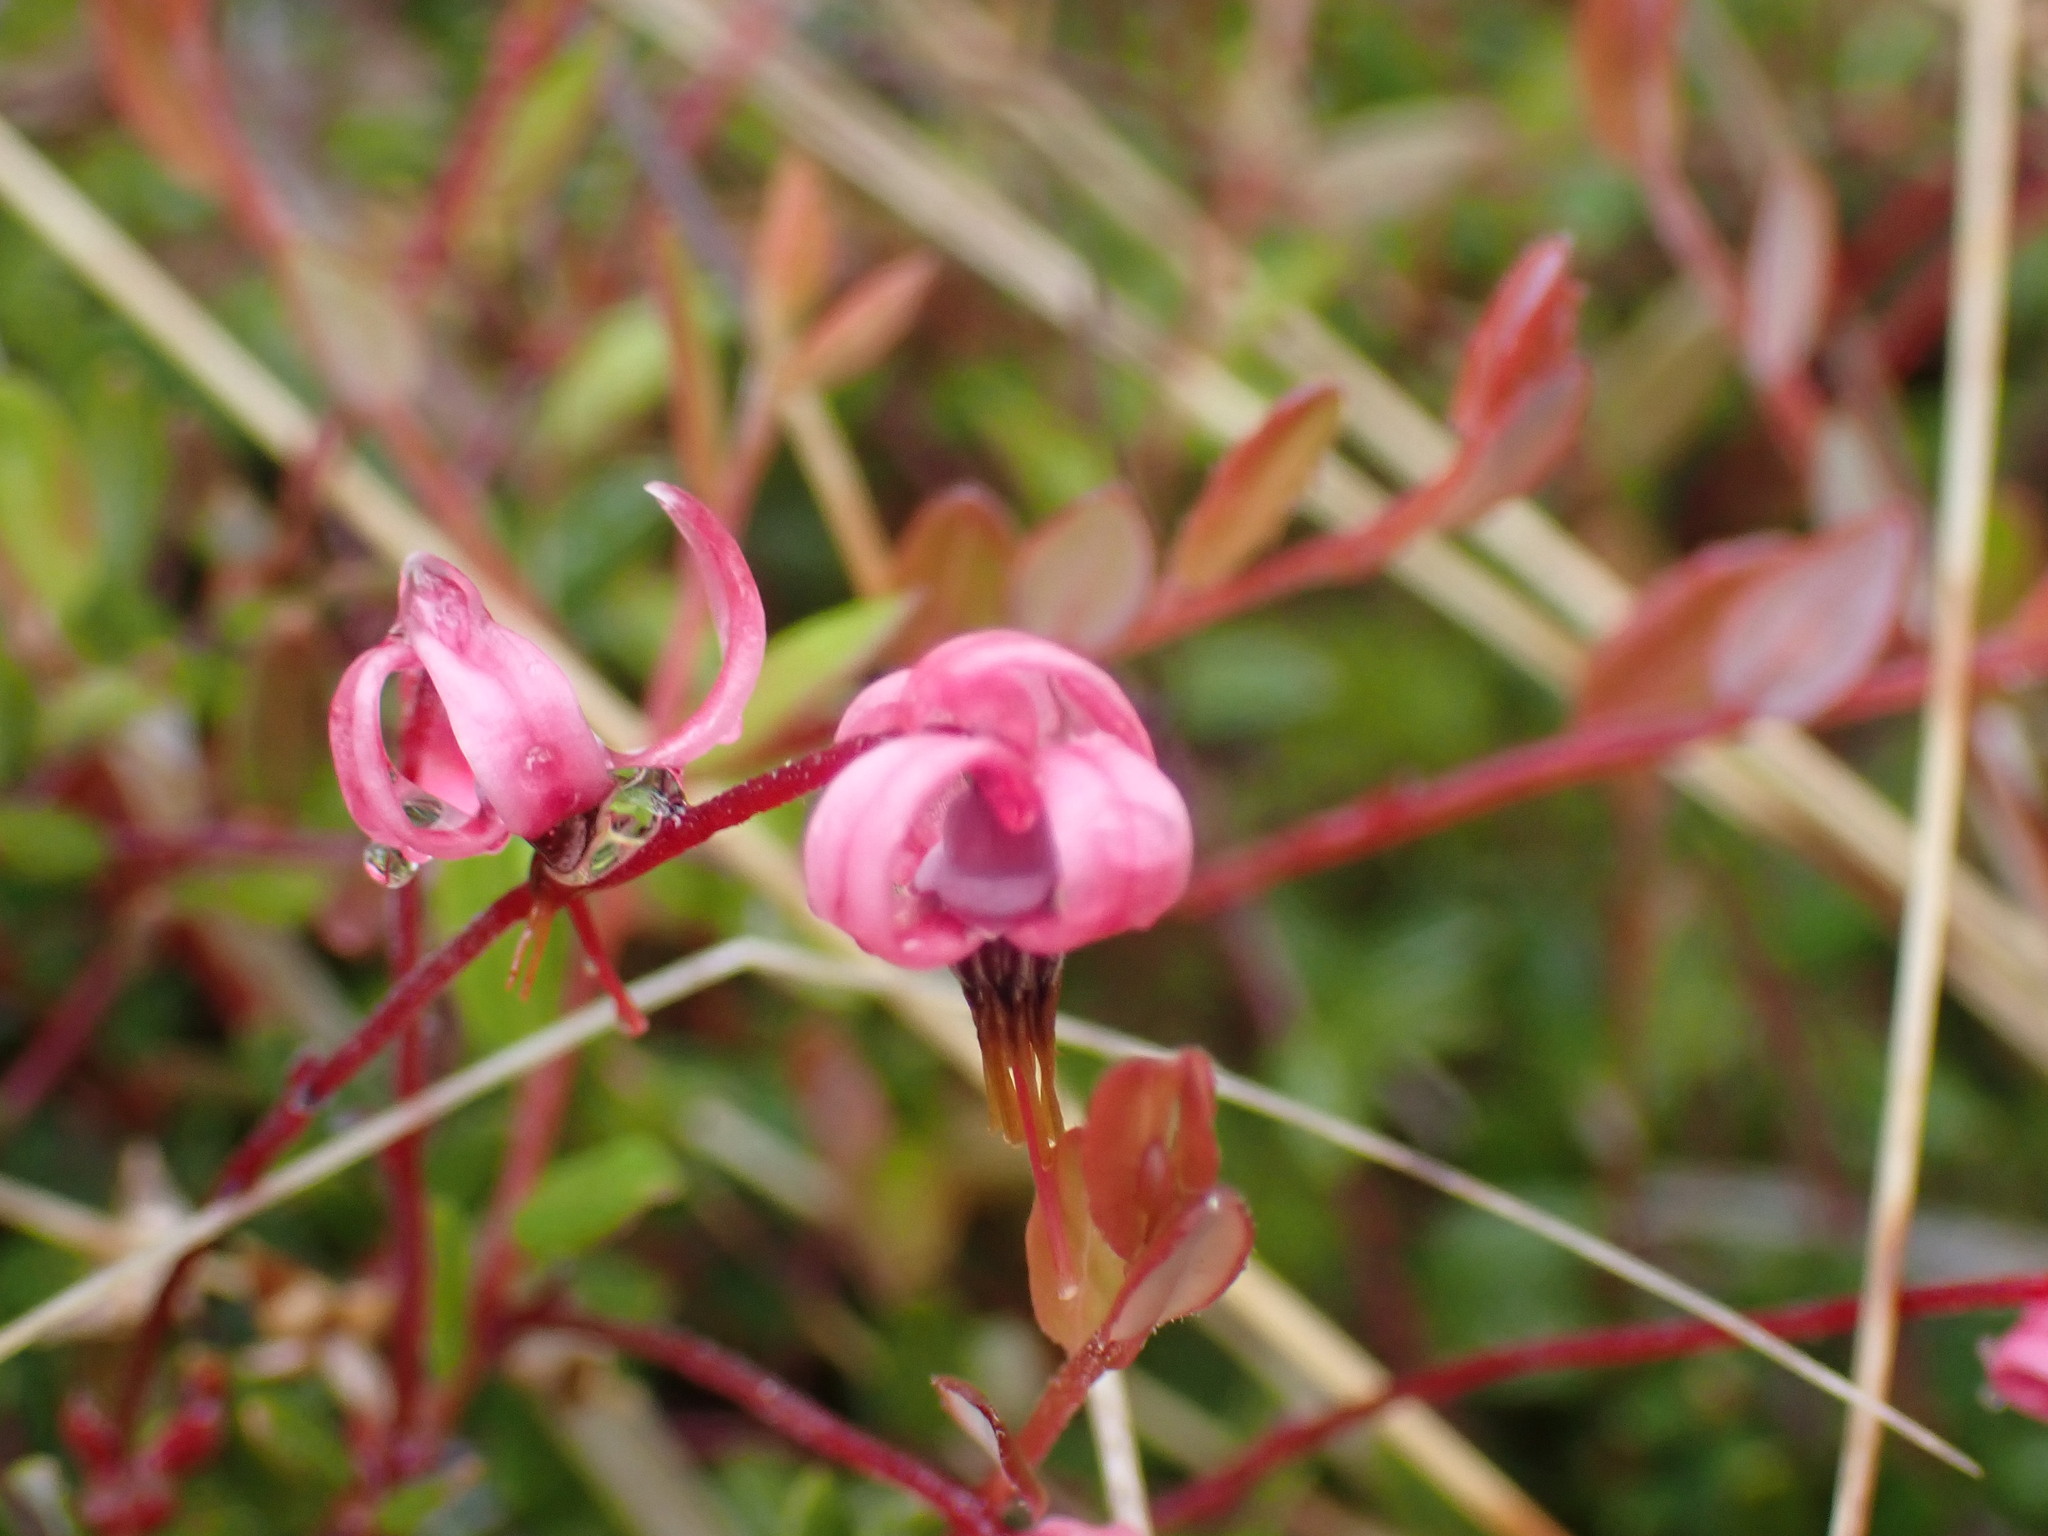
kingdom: Plantae
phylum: Tracheophyta
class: Magnoliopsida
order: Ericales
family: Ericaceae
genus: Vaccinium
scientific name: Vaccinium oxycoccos
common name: Cranberry
